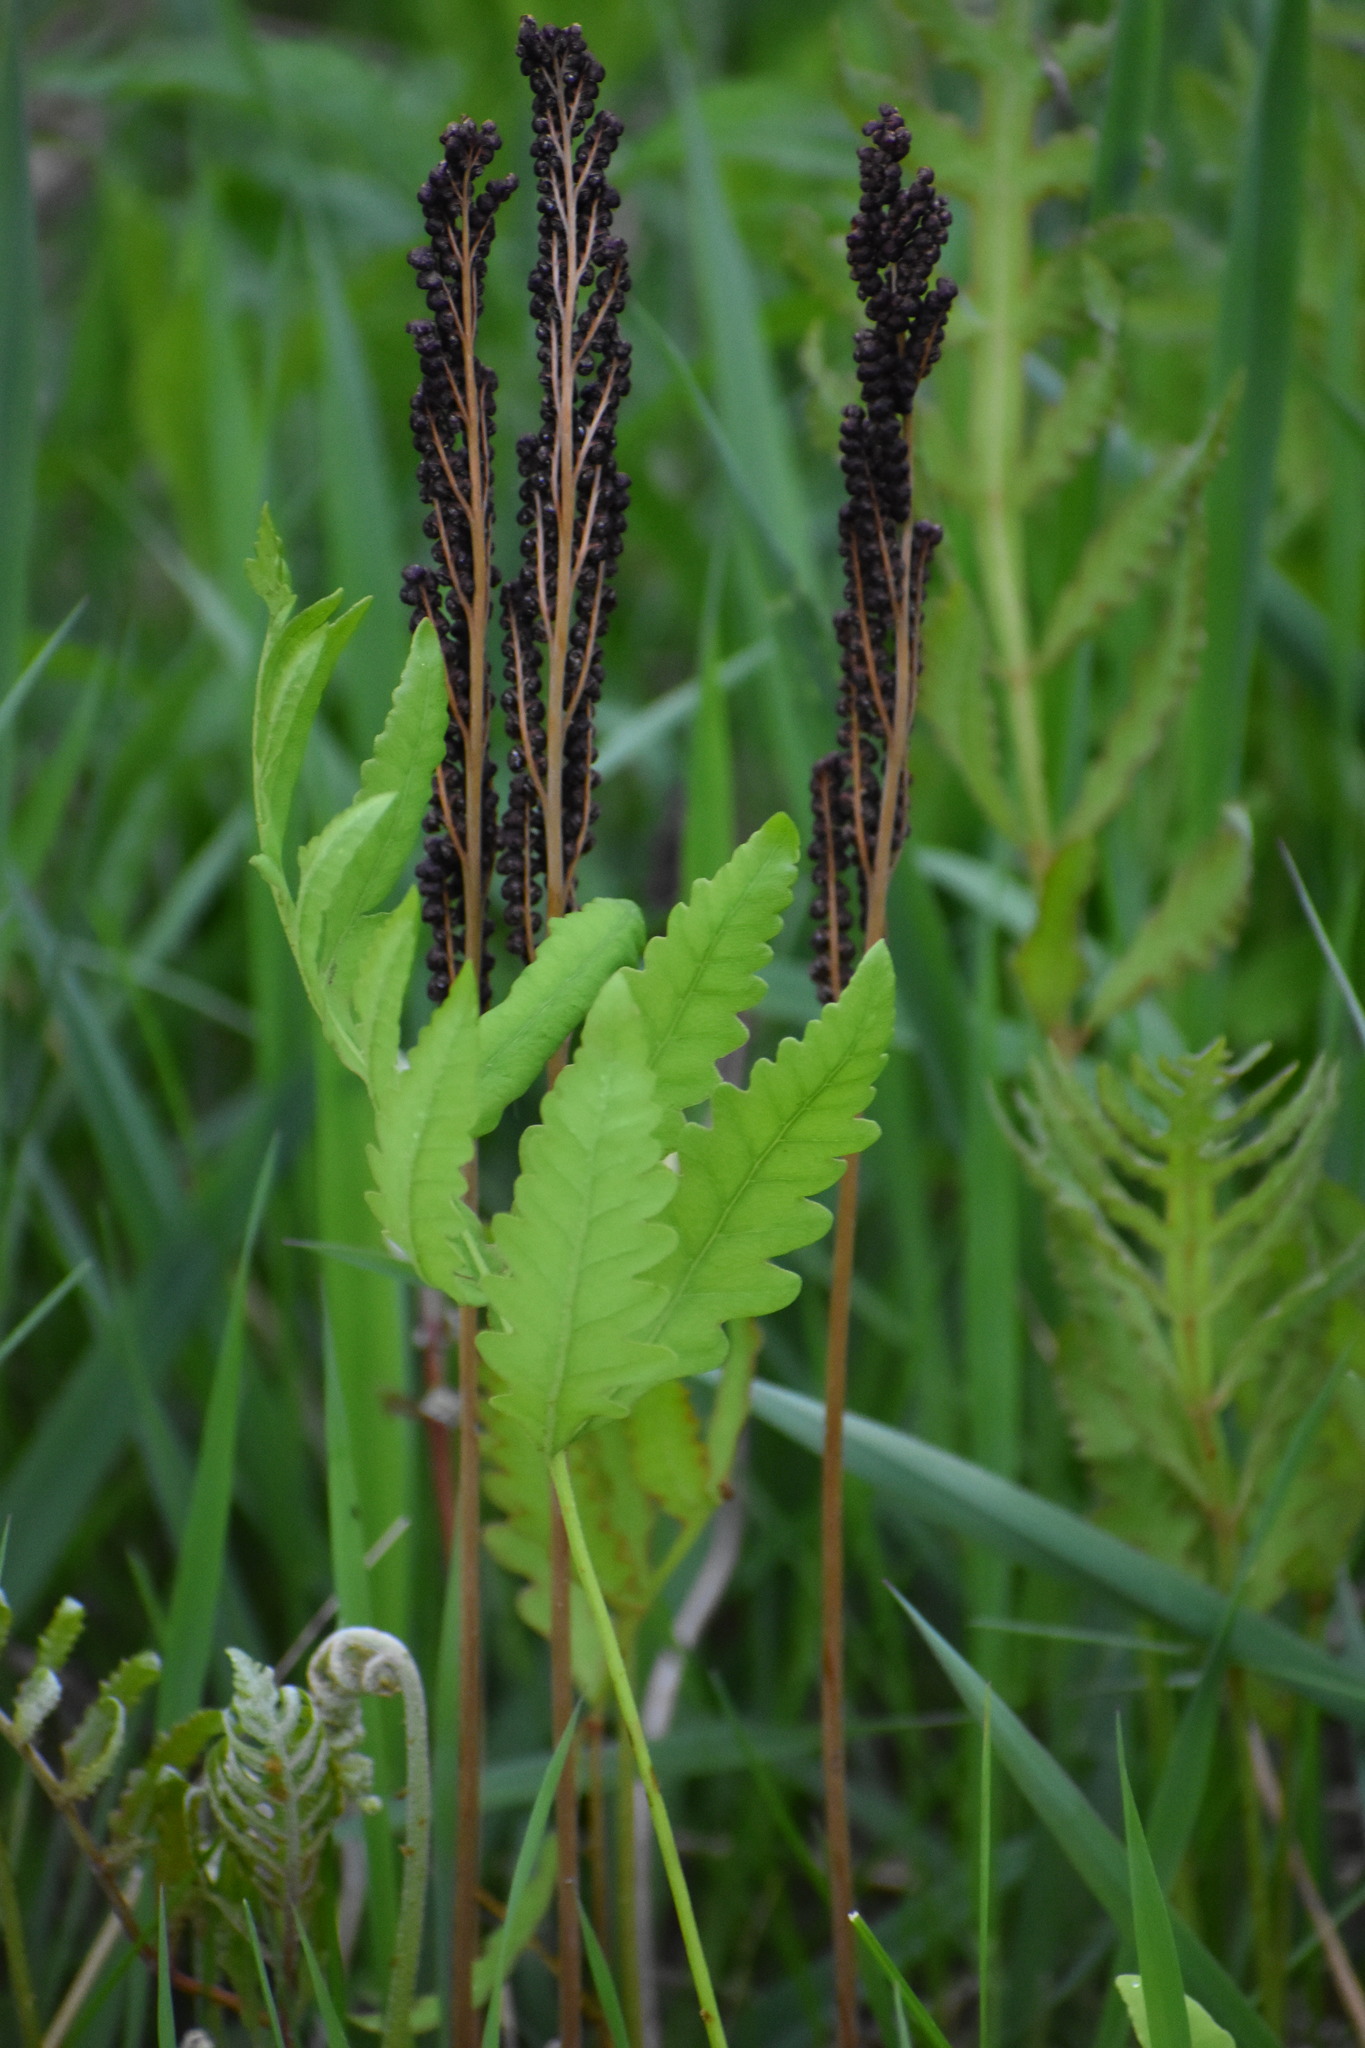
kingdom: Plantae
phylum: Tracheophyta
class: Polypodiopsida
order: Polypodiales
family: Onocleaceae
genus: Onoclea
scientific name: Onoclea sensibilis
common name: Sensitive fern
